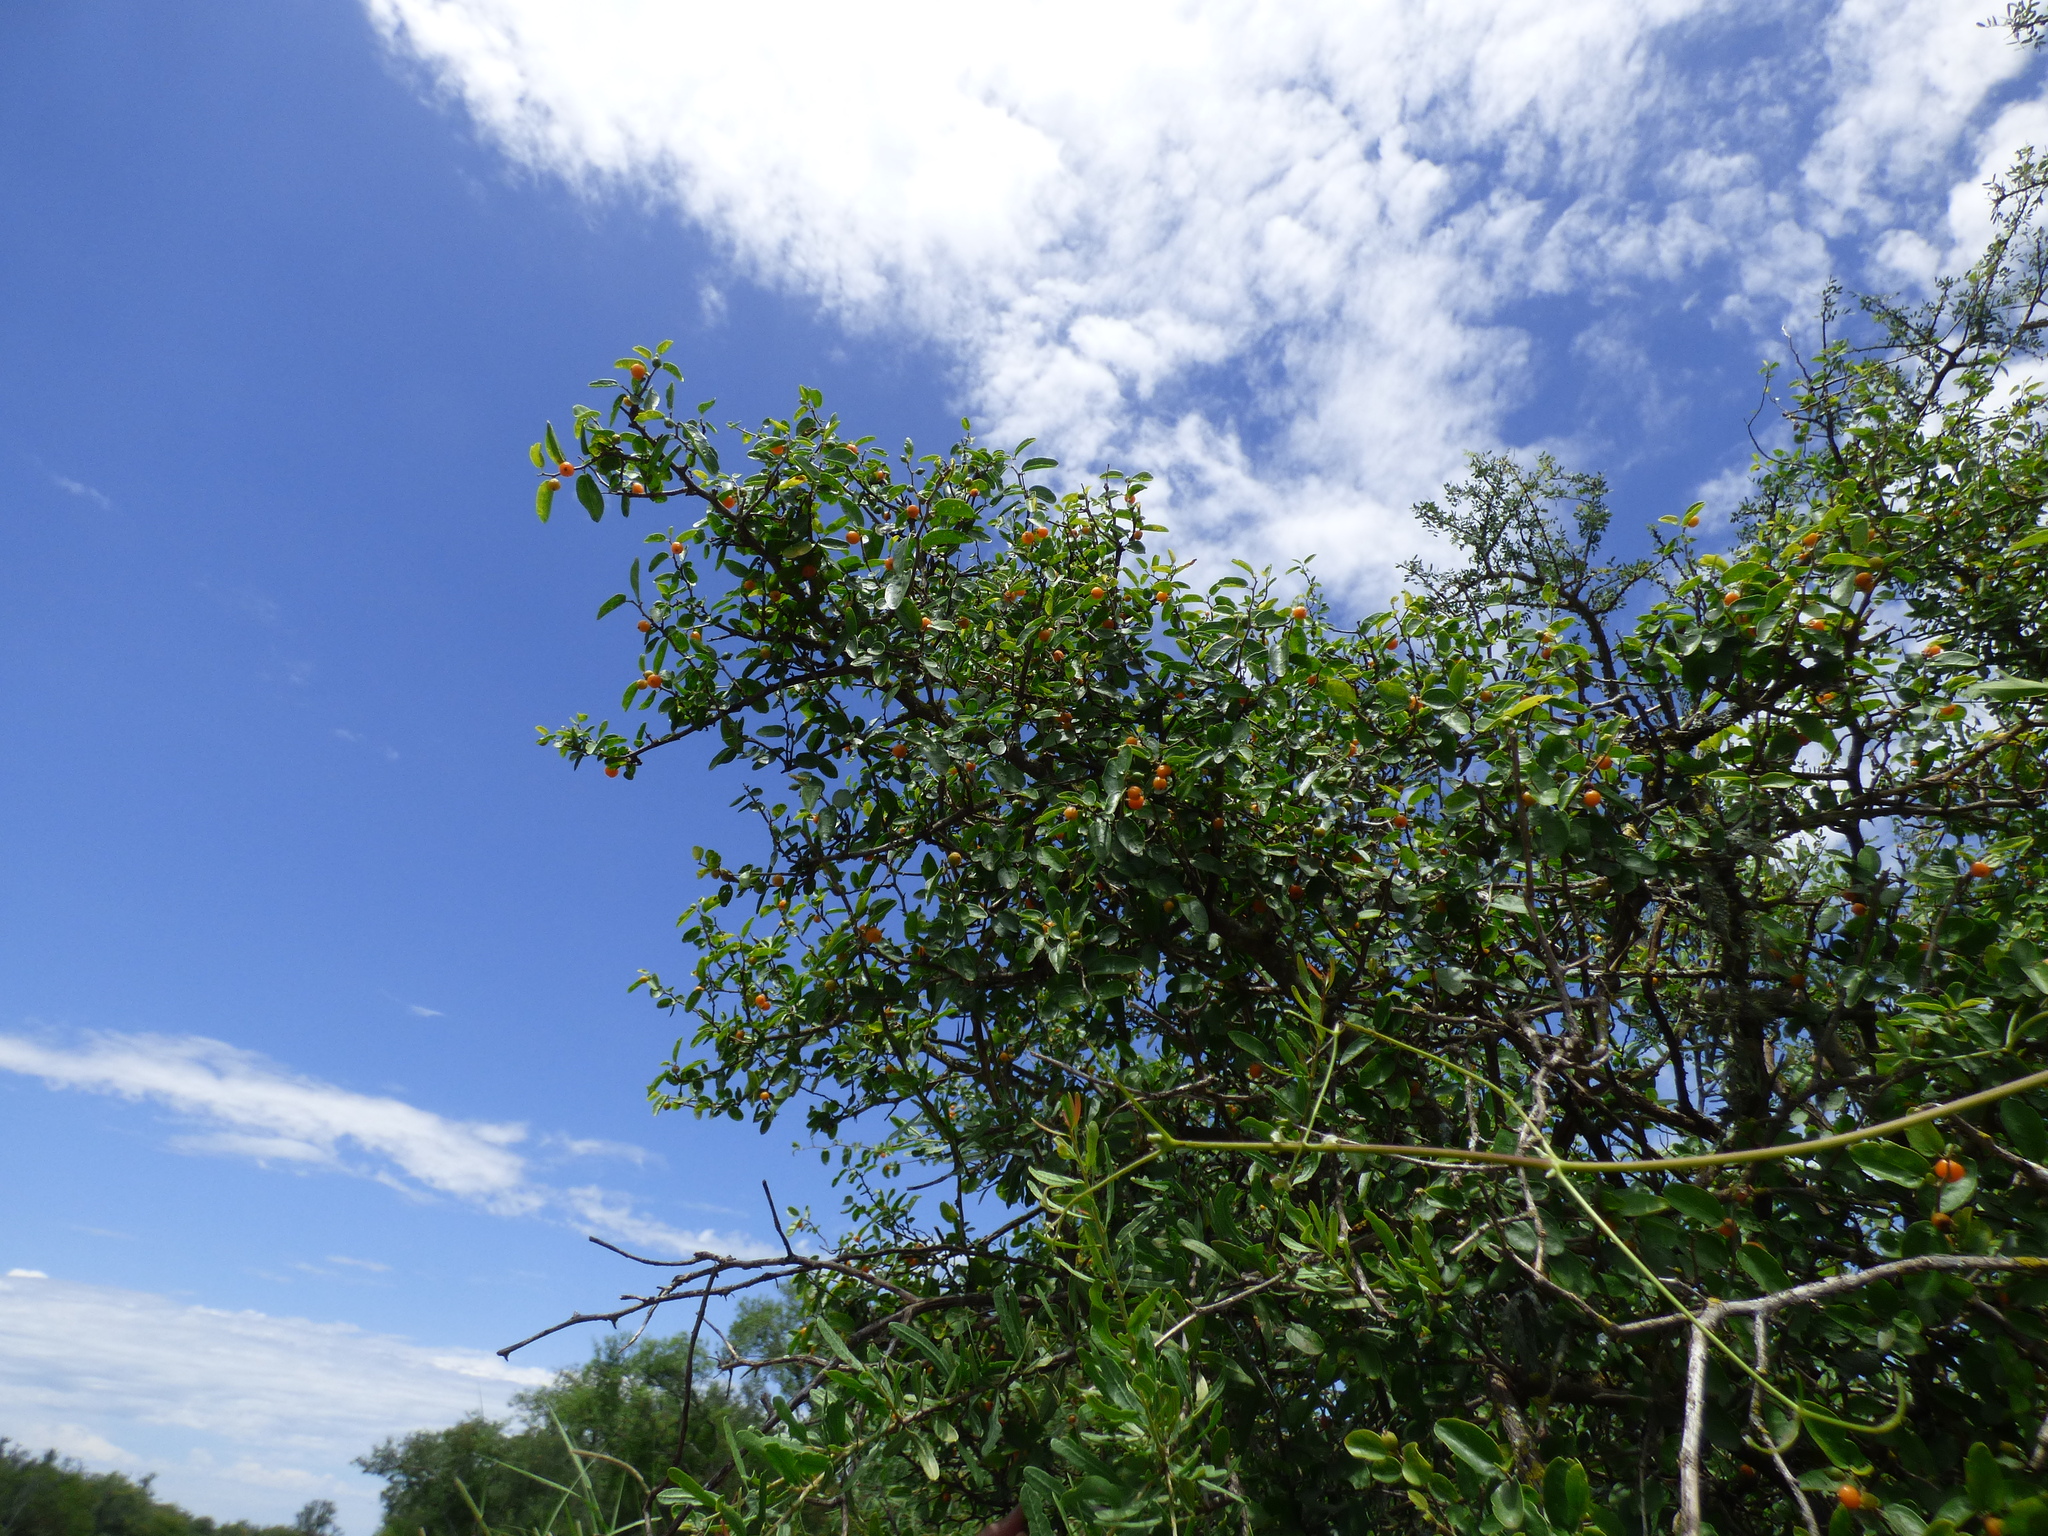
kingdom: Plantae
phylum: Tracheophyta
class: Magnoliopsida
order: Rosales
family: Cannabaceae
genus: Celtis
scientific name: Celtis pallida
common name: Desert hackberry
